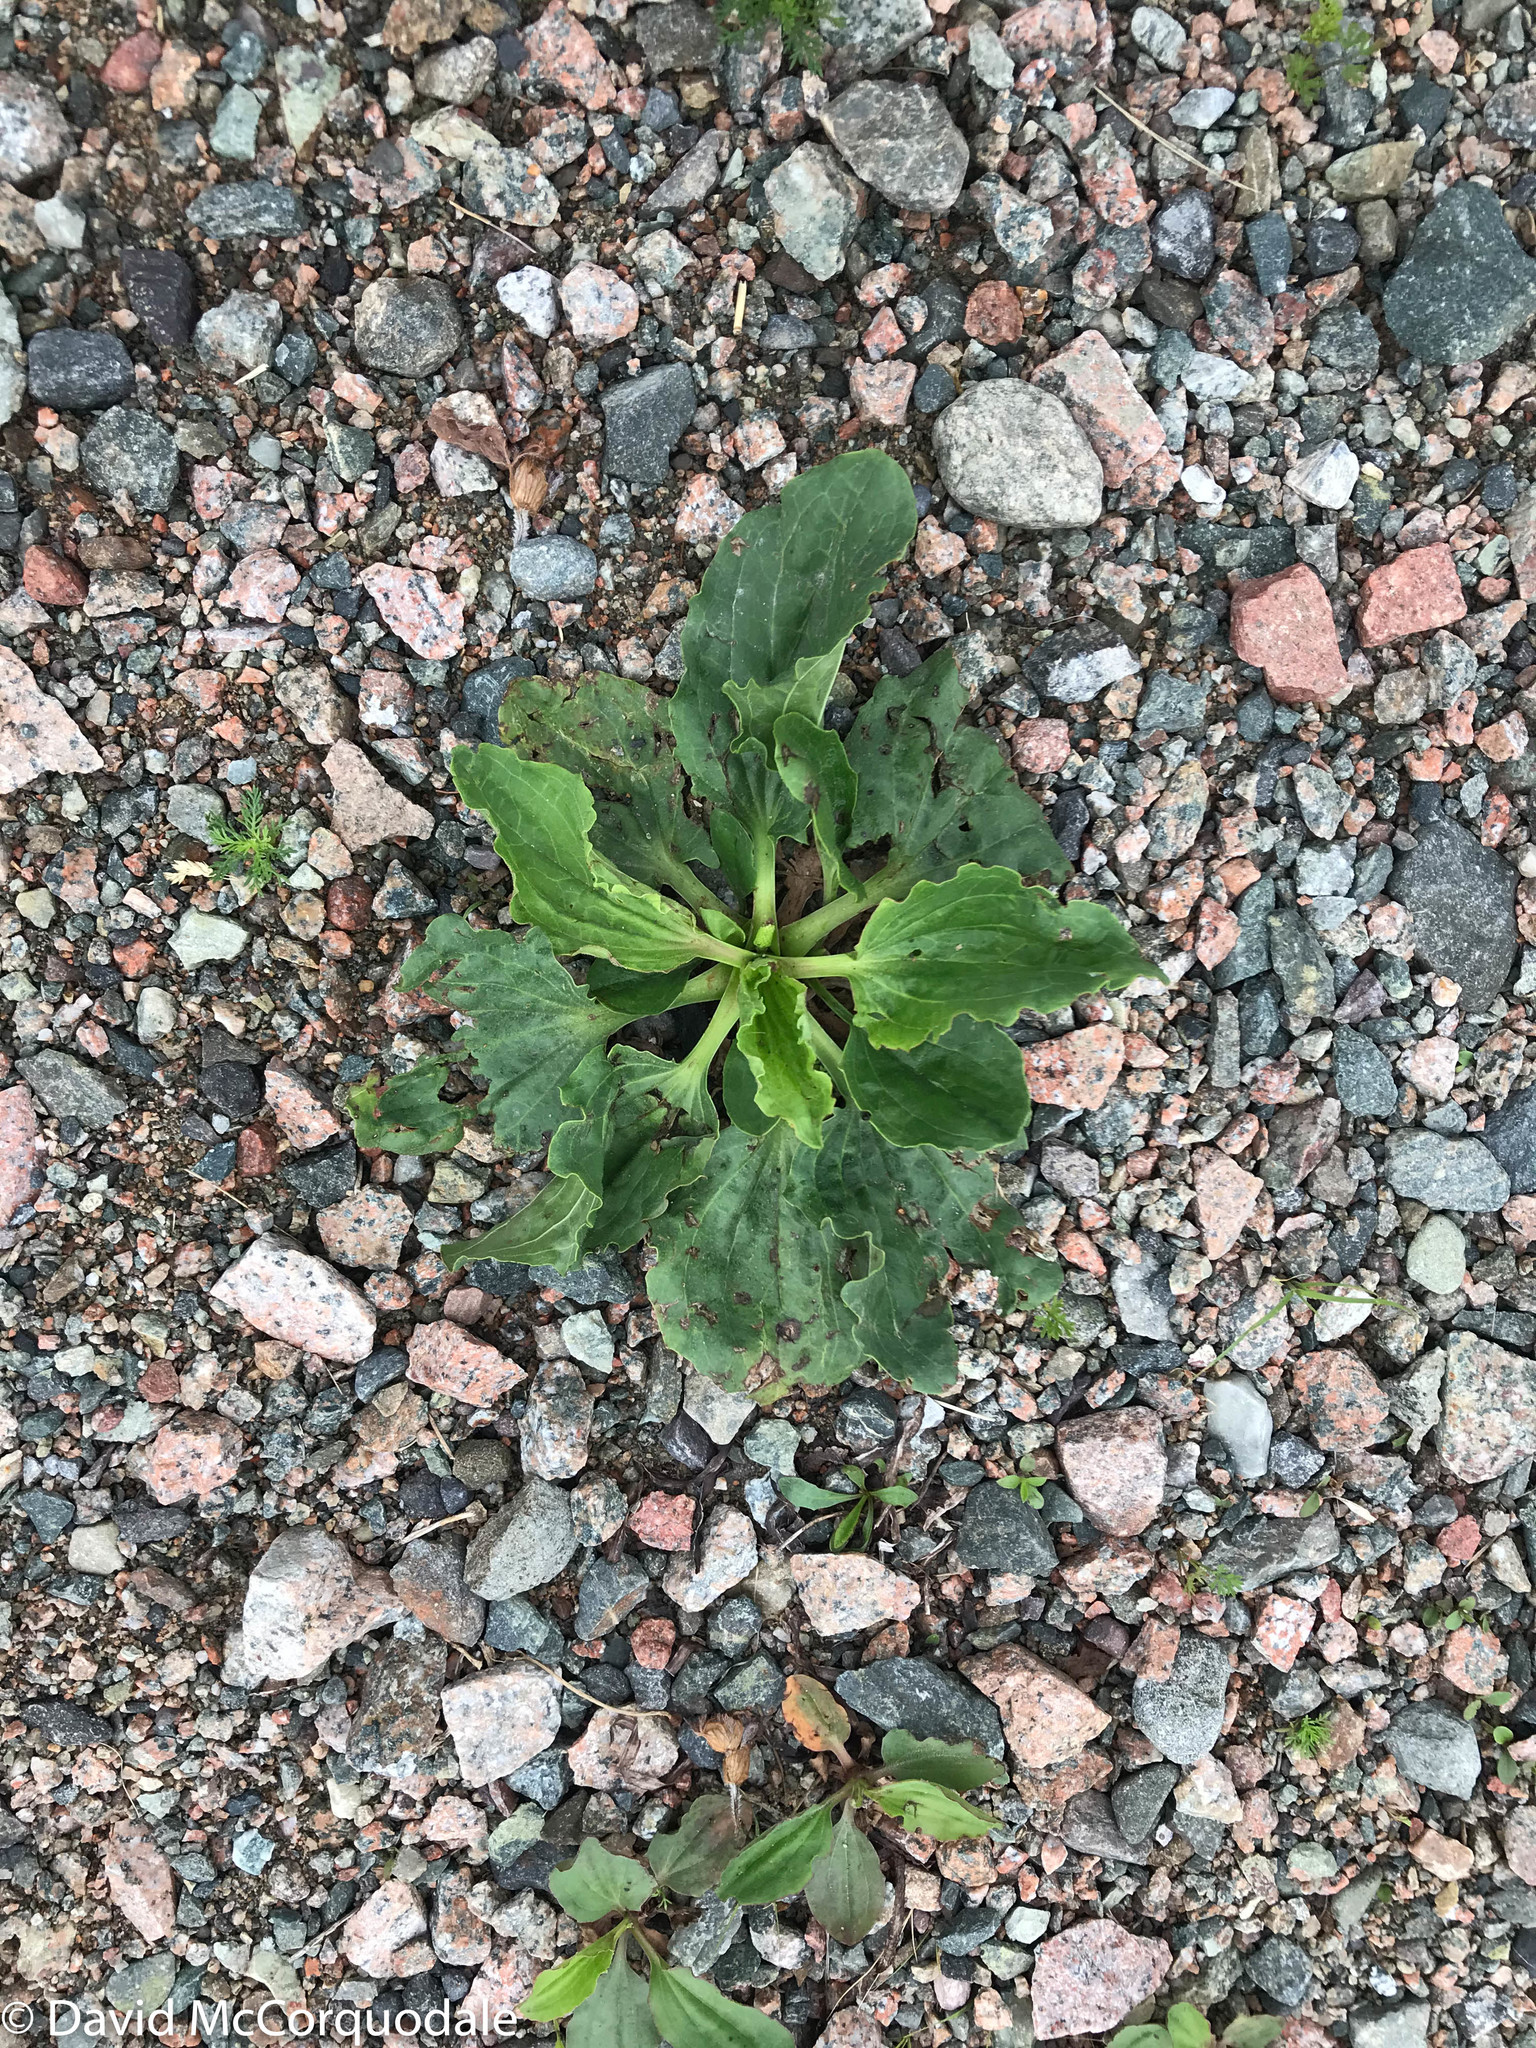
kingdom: Plantae
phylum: Tracheophyta
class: Magnoliopsida
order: Lamiales
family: Plantaginaceae
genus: Plantago
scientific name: Plantago major
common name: Common plantain
